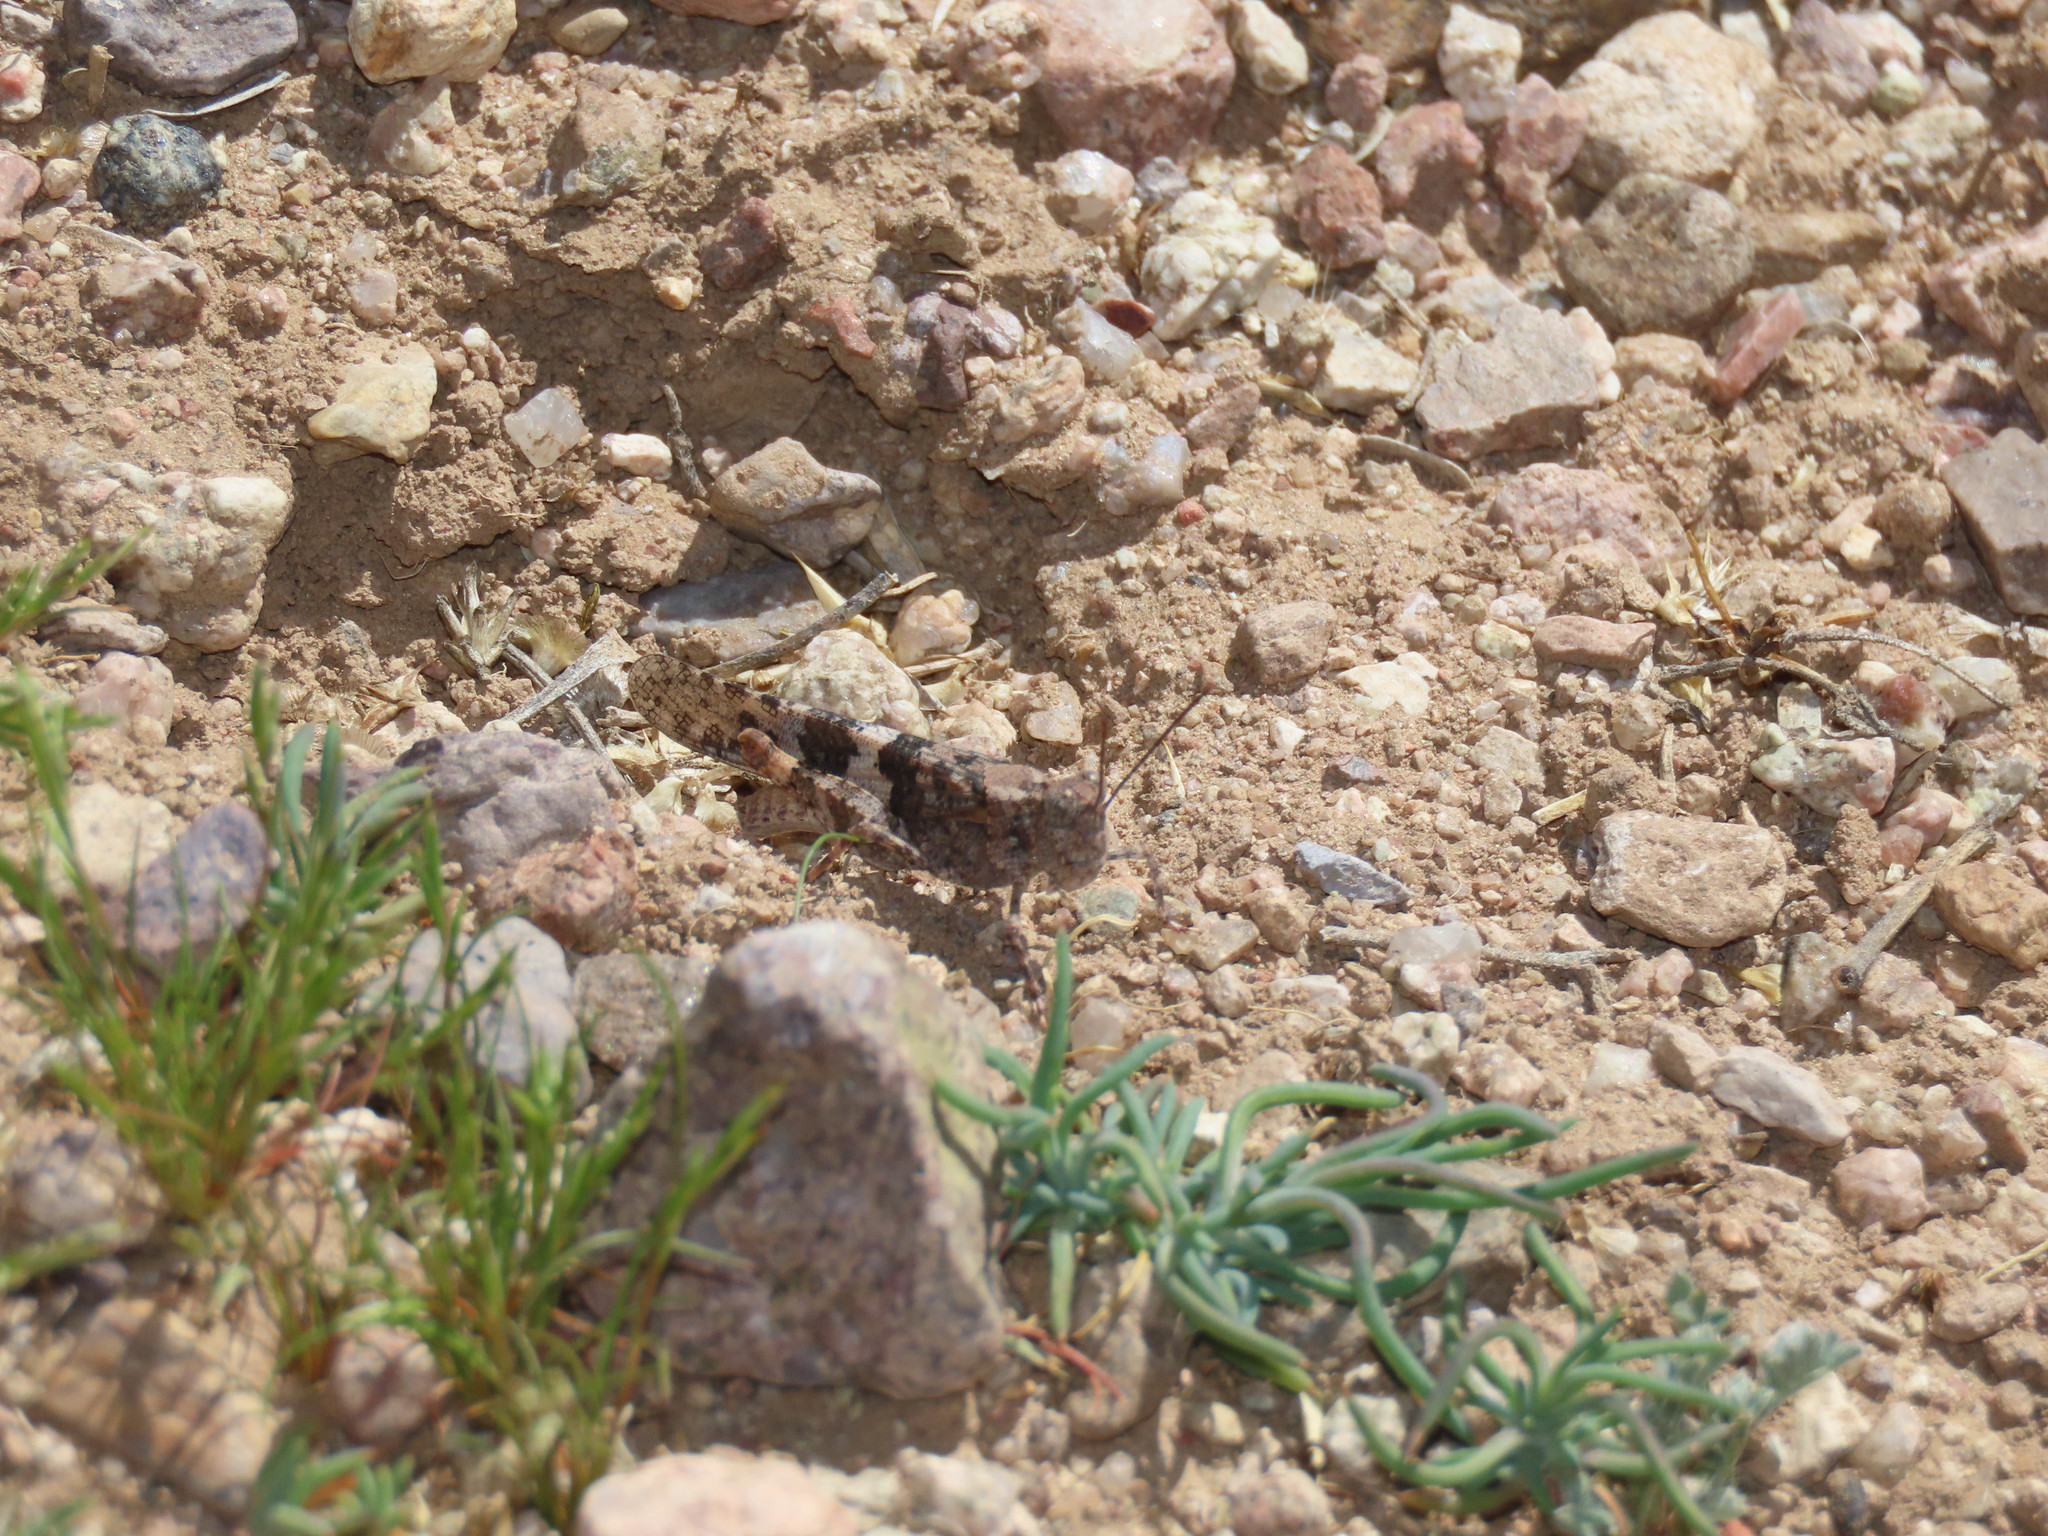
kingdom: Animalia
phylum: Arthropoda
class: Insecta
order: Orthoptera
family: Acrididae
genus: Trimerotropis
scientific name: Trimerotropis pallidipennis
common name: Pallid-winged grasshopper
